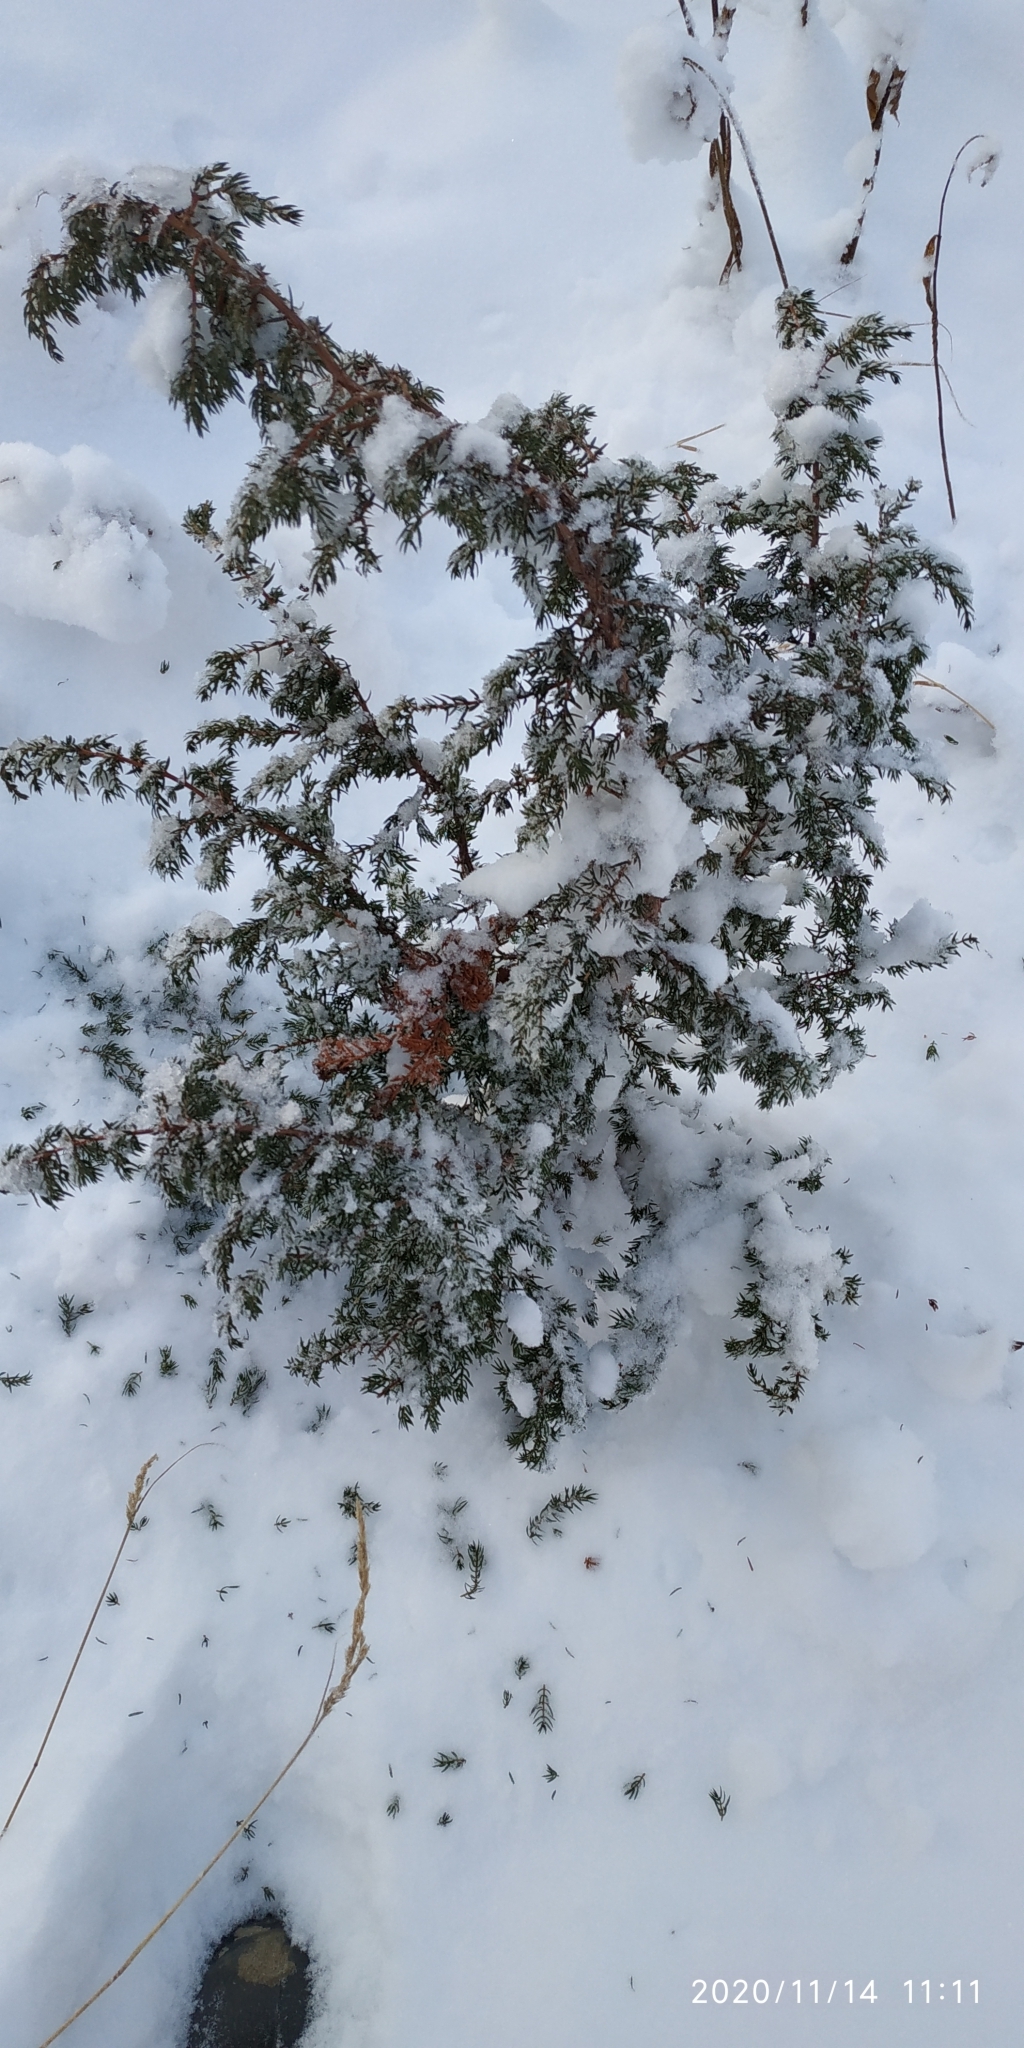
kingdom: Plantae
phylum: Tracheophyta
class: Pinopsida
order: Pinales
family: Cupressaceae
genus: Juniperus
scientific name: Juniperus communis
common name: Common juniper
